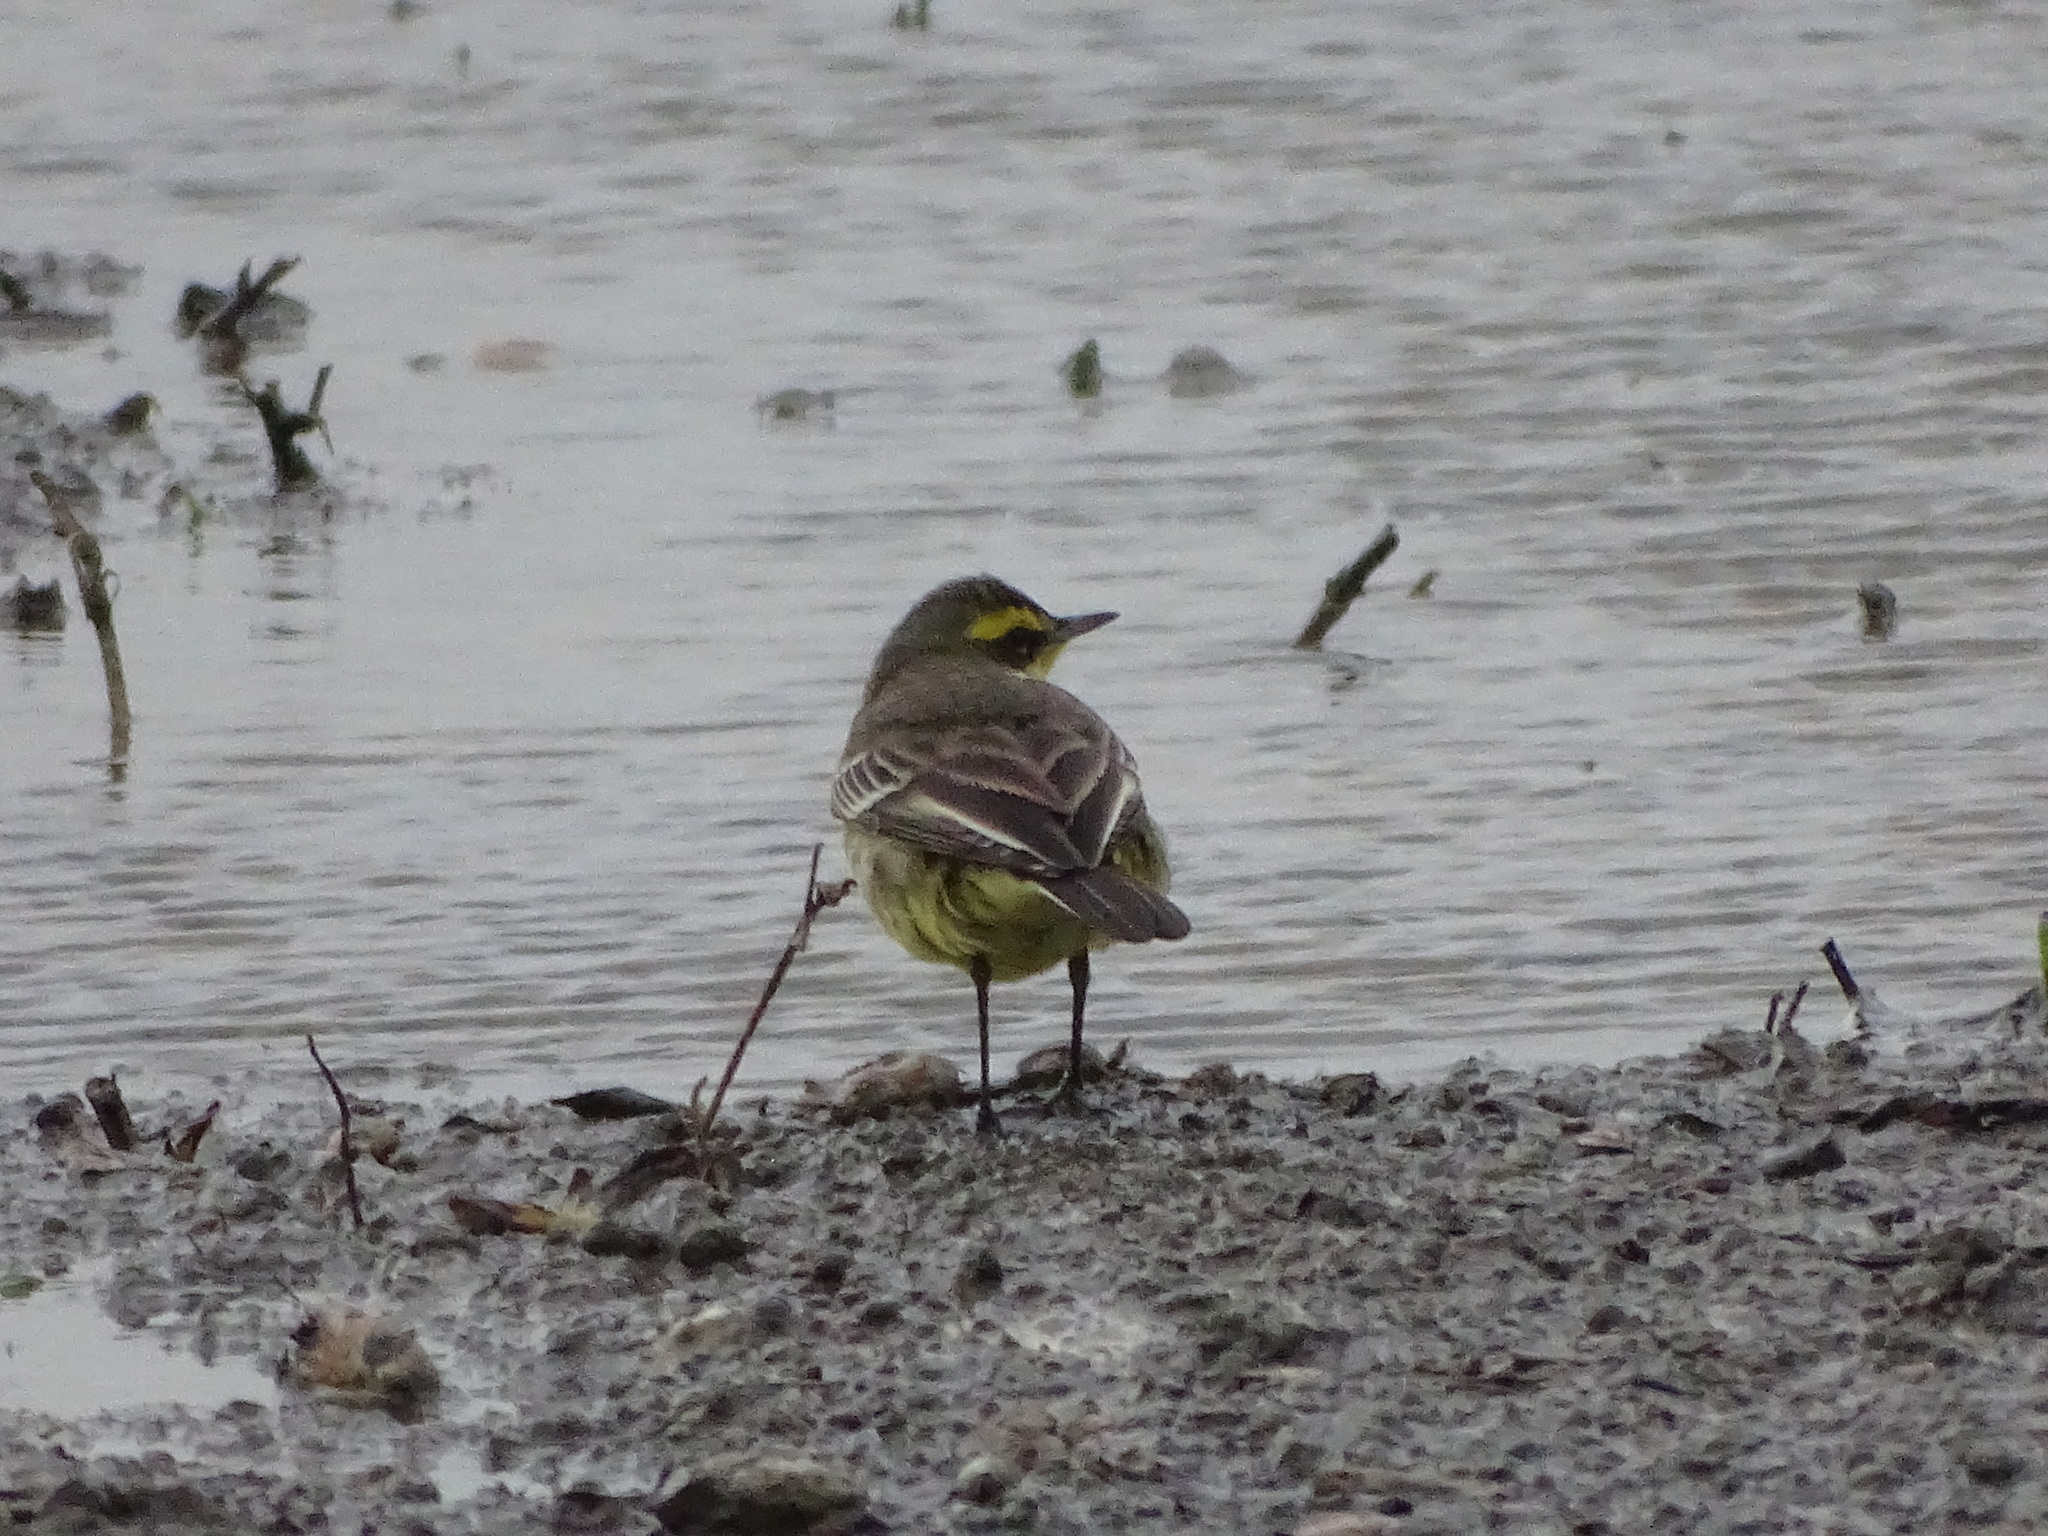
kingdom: Animalia
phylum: Chordata
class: Aves
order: Passeriformes
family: Motacillidae
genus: Motacilla
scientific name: Motacilla tschutschensis
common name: Eastern yellow wagtail
